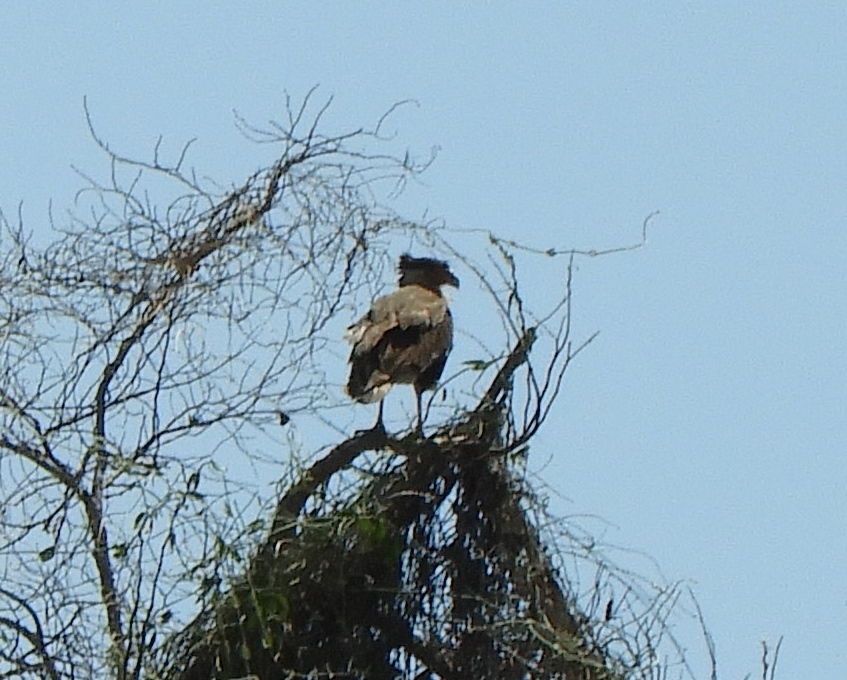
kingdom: Animalia
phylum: Chordata
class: Aves
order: Falconiformes
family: Falconidae
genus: Caracara
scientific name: Caracara plancus
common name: Southern caracara
